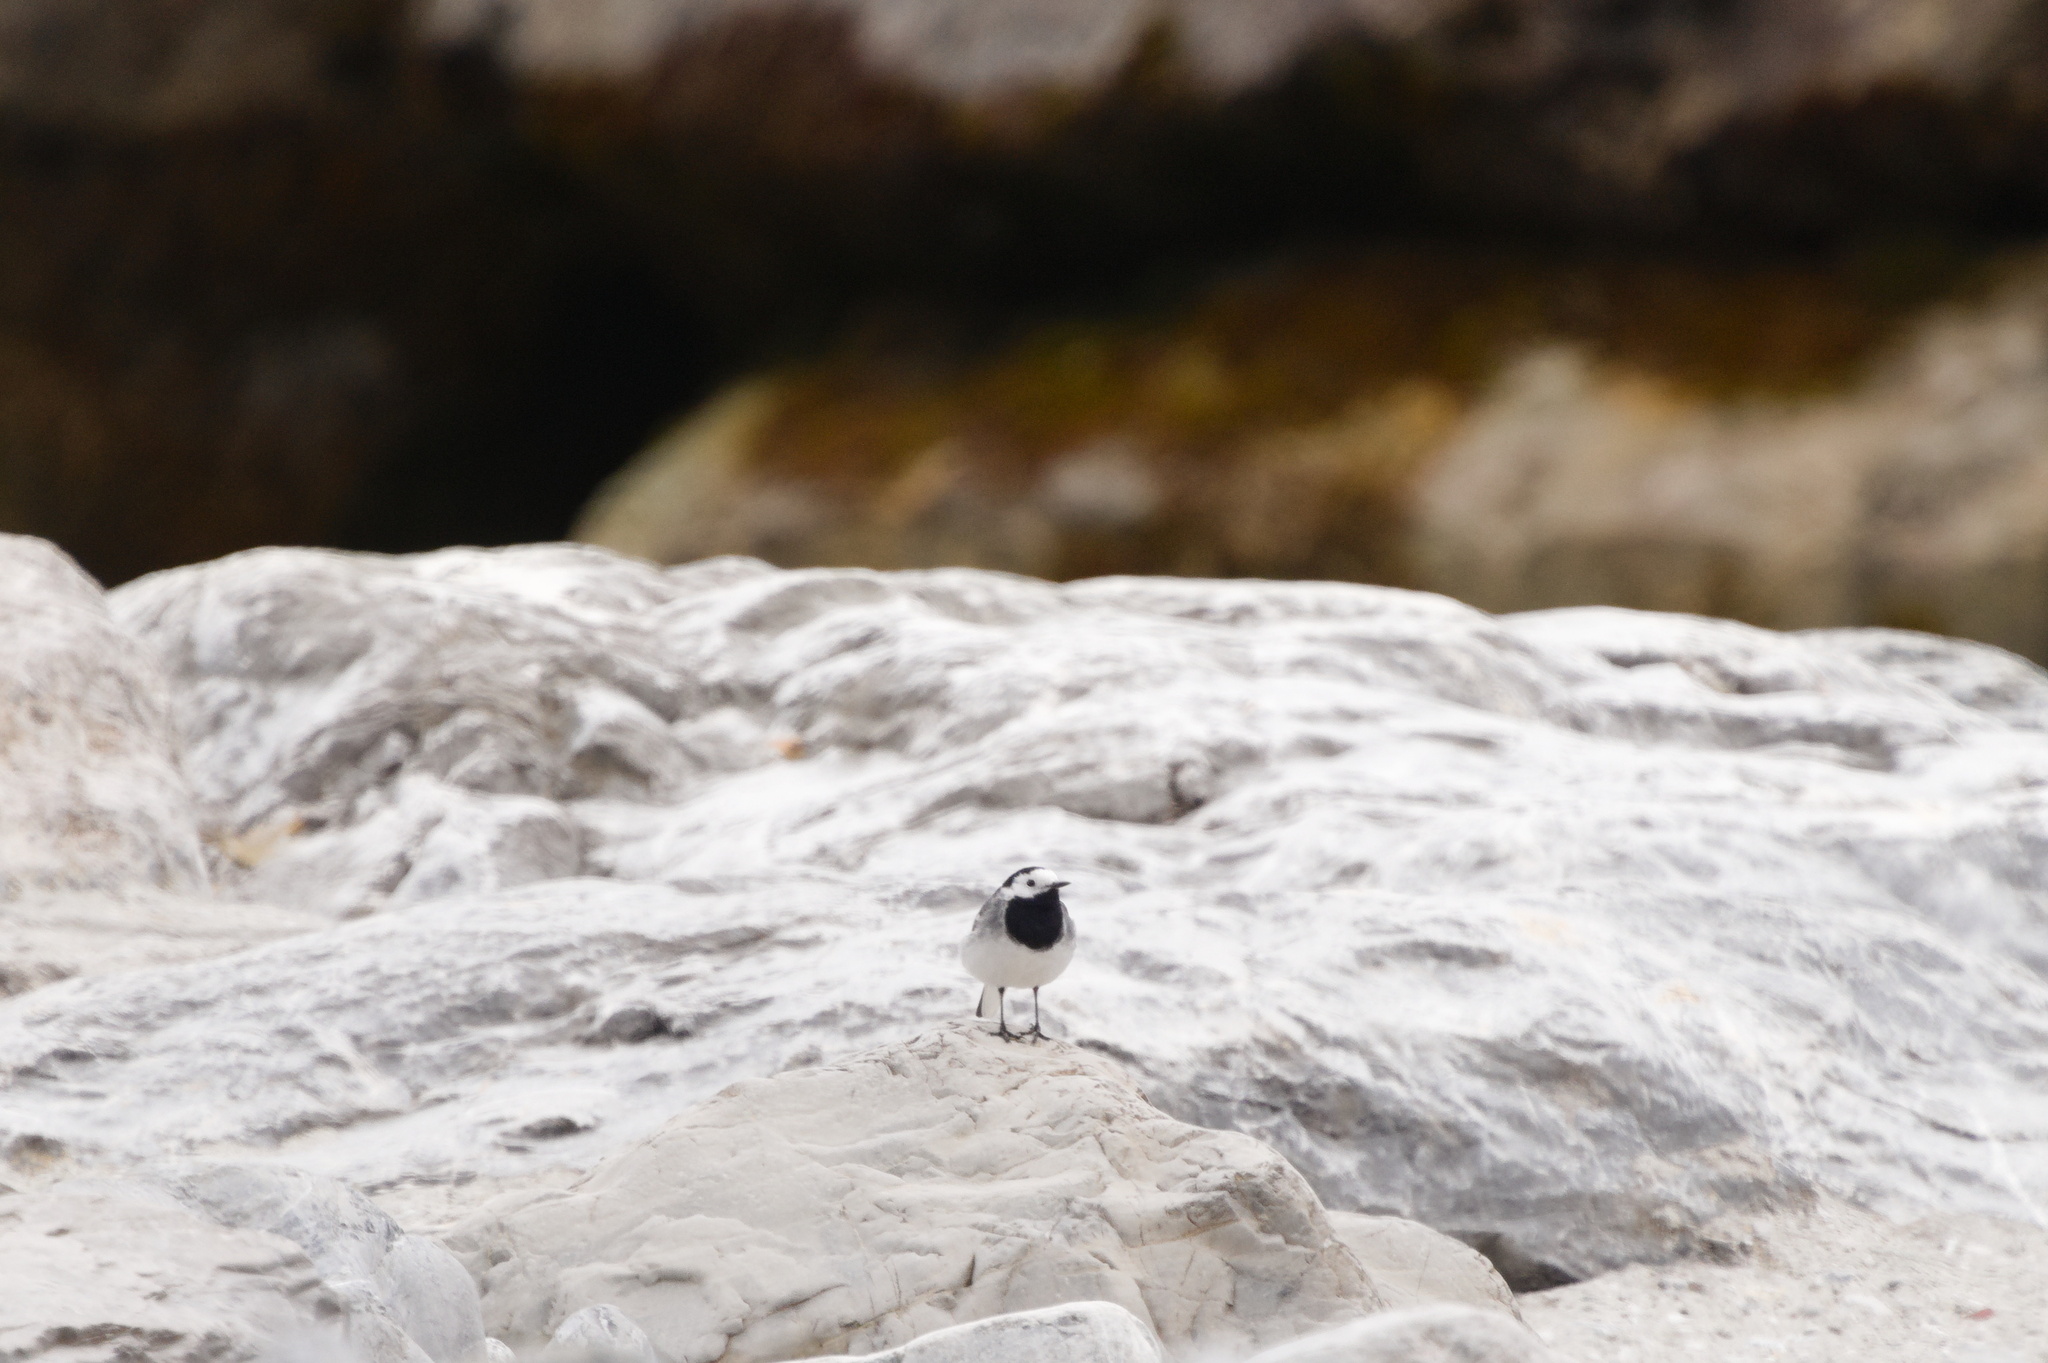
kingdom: Animalia
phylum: Chordata
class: Aves
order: Passeriformes
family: Motacillidae
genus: Motacilla
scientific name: Motacilla alba
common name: White wagtail
